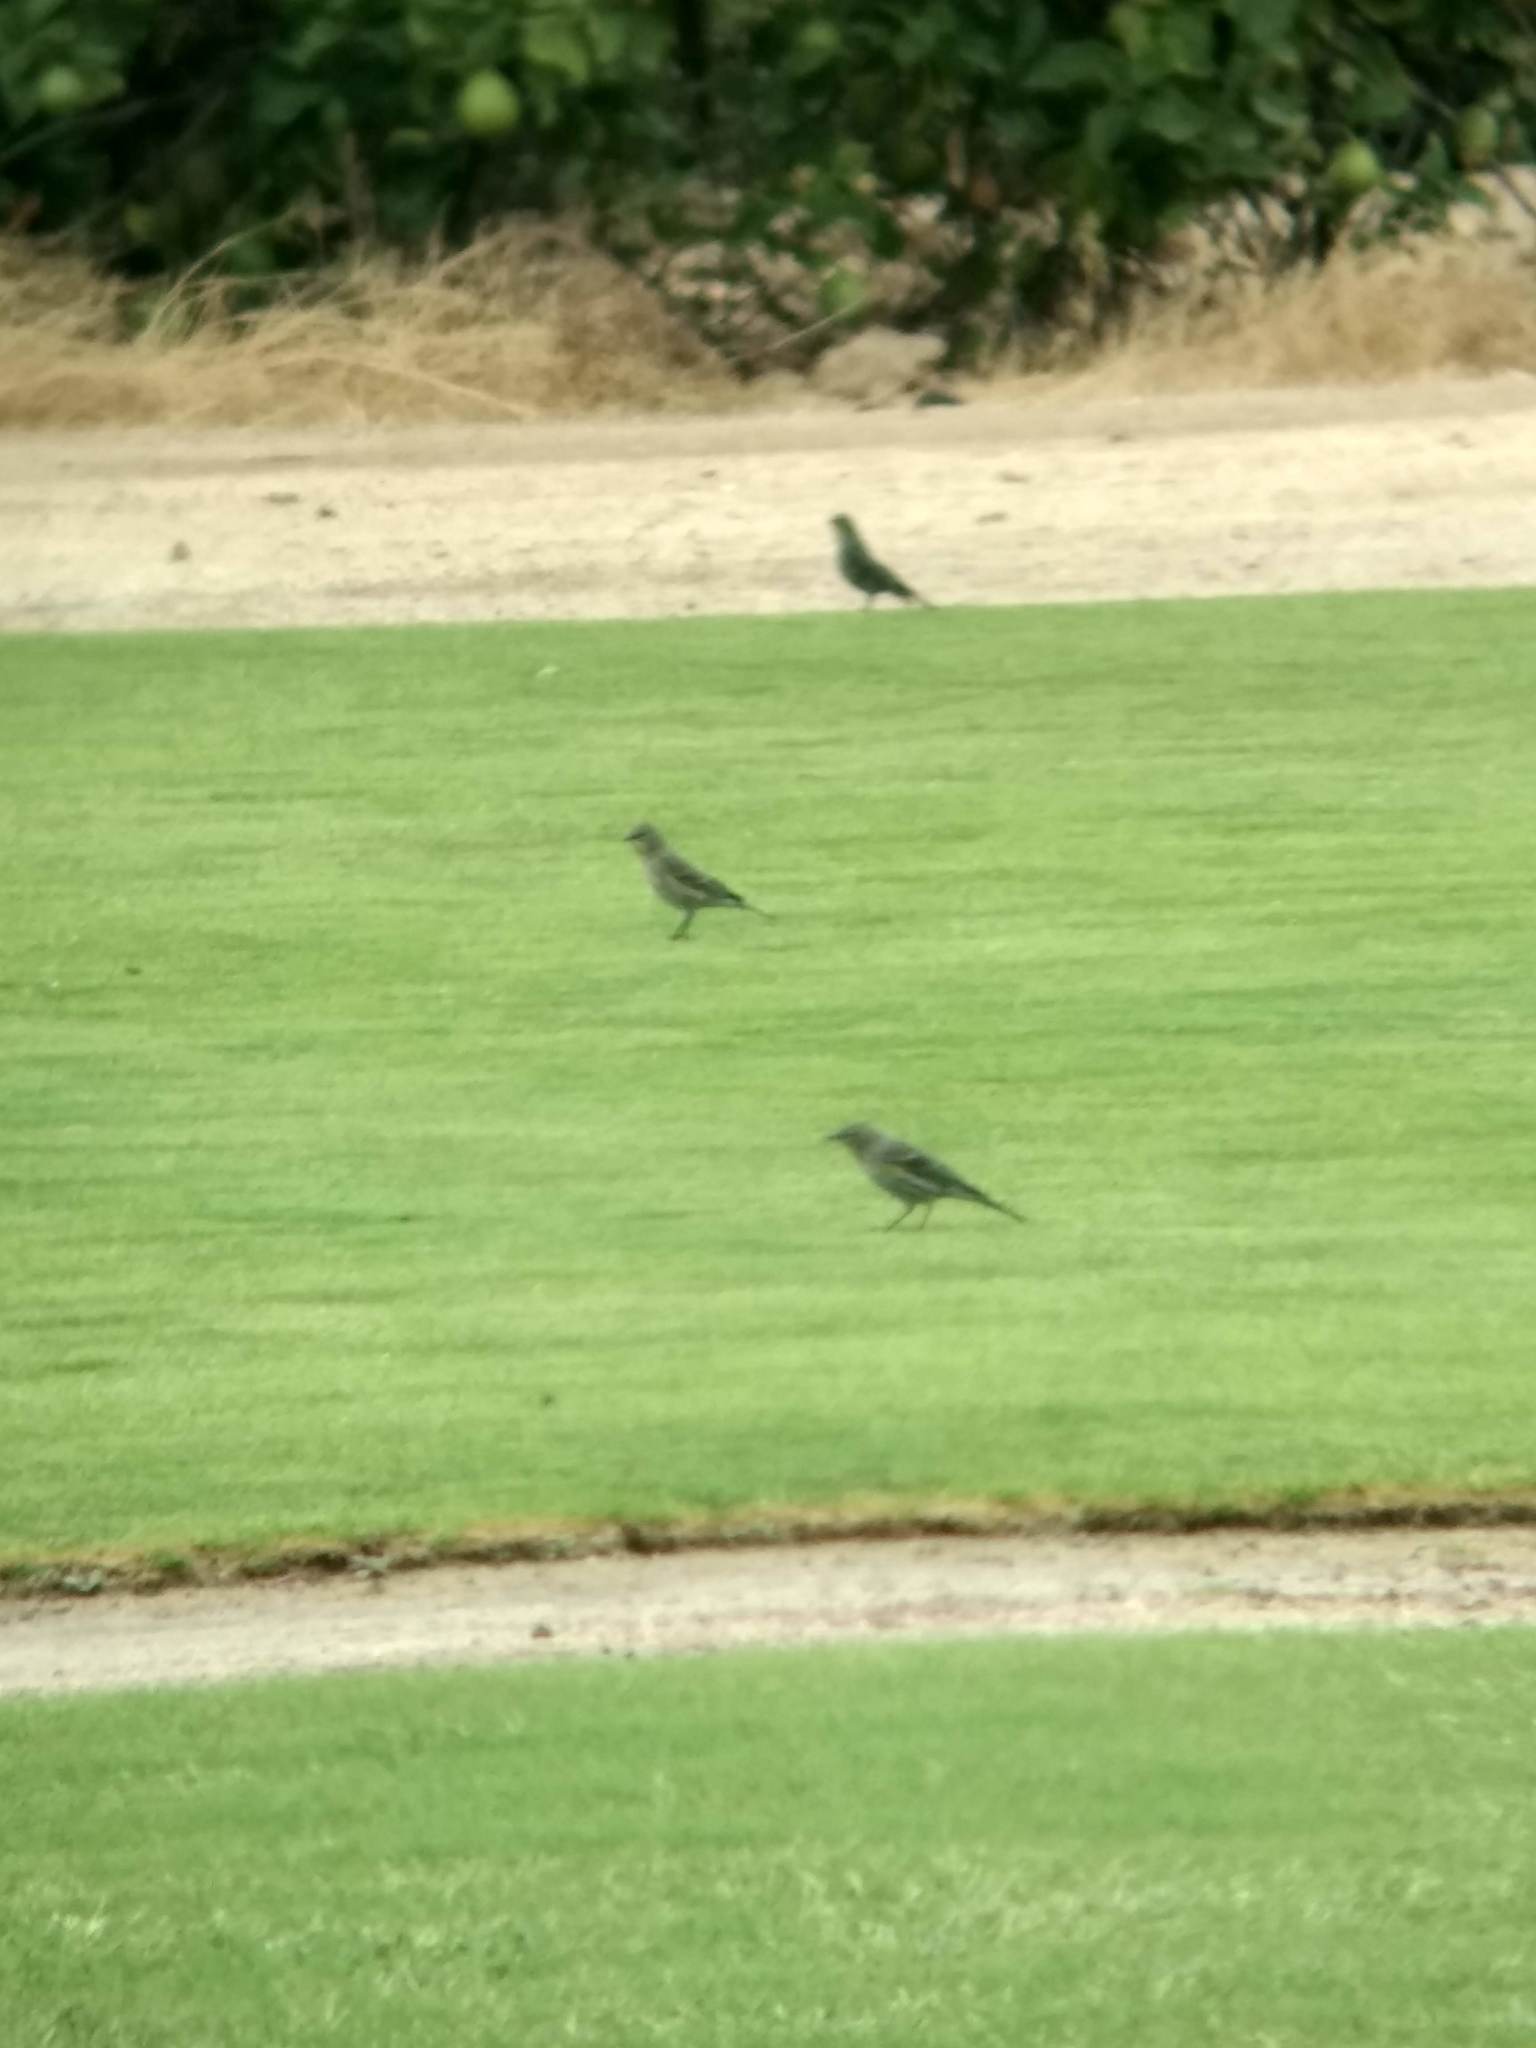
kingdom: Animalia
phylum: Chordata
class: Aves
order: Passeriformes
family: Parulidae
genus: Setophaga
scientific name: Setophaga coronata
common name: Myrtle warbler
